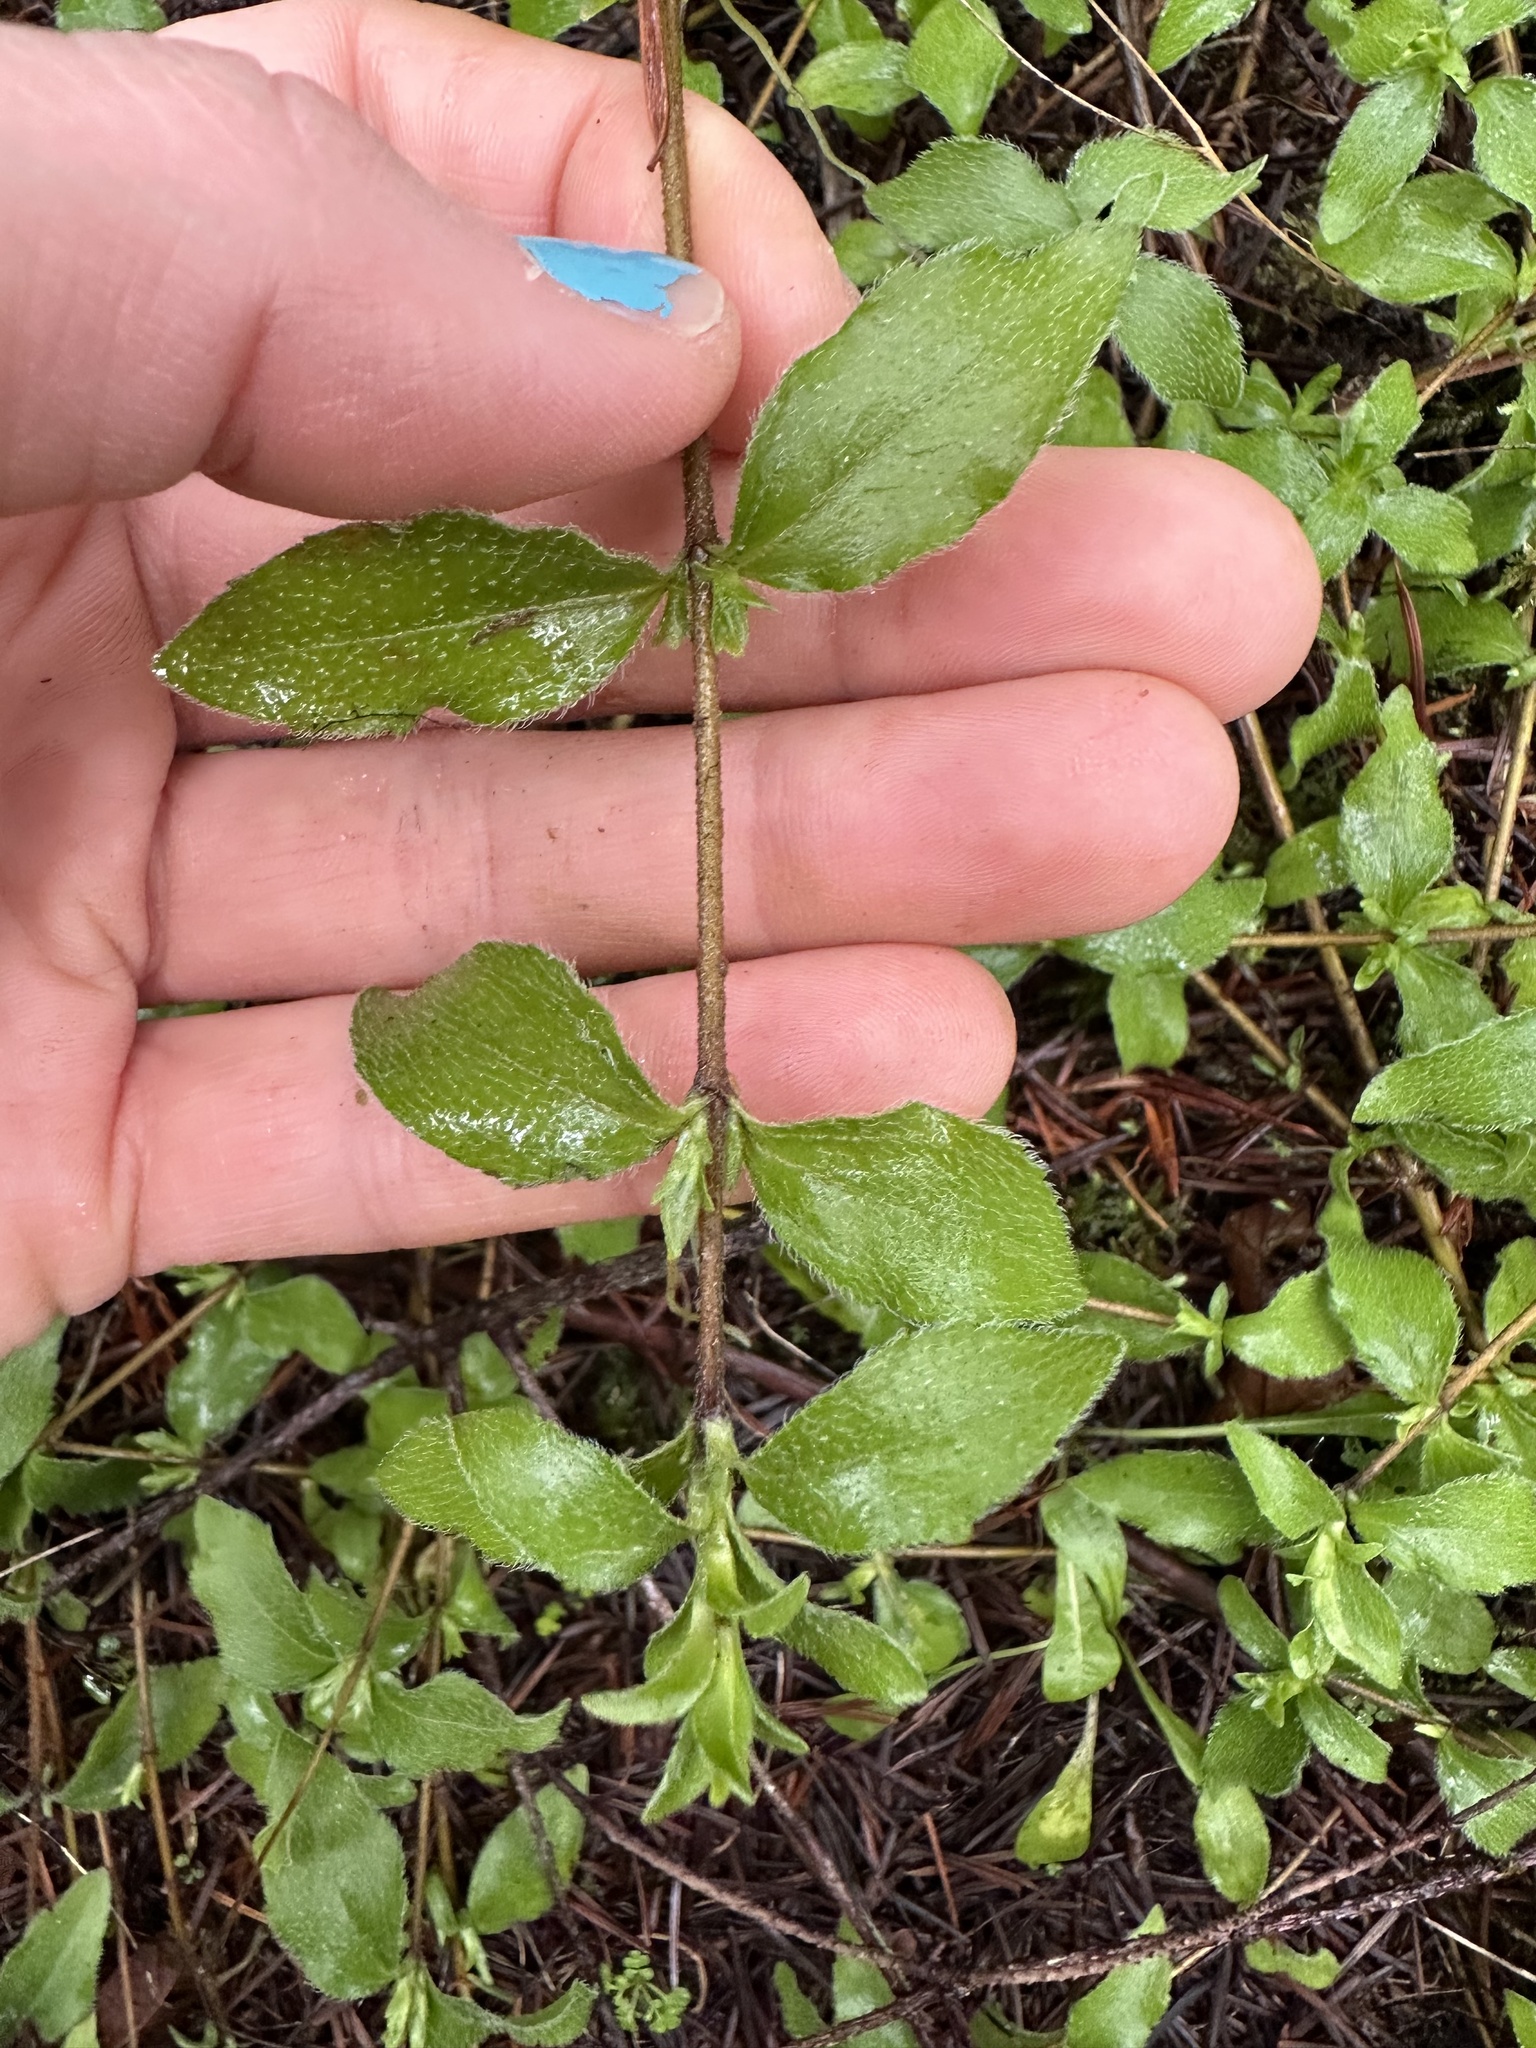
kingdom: Plantae
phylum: Tracheophyta
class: Magnoliopsida
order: Cornales
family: Hydrangeaceae
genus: Whipplea
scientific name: Whipplea modesta
